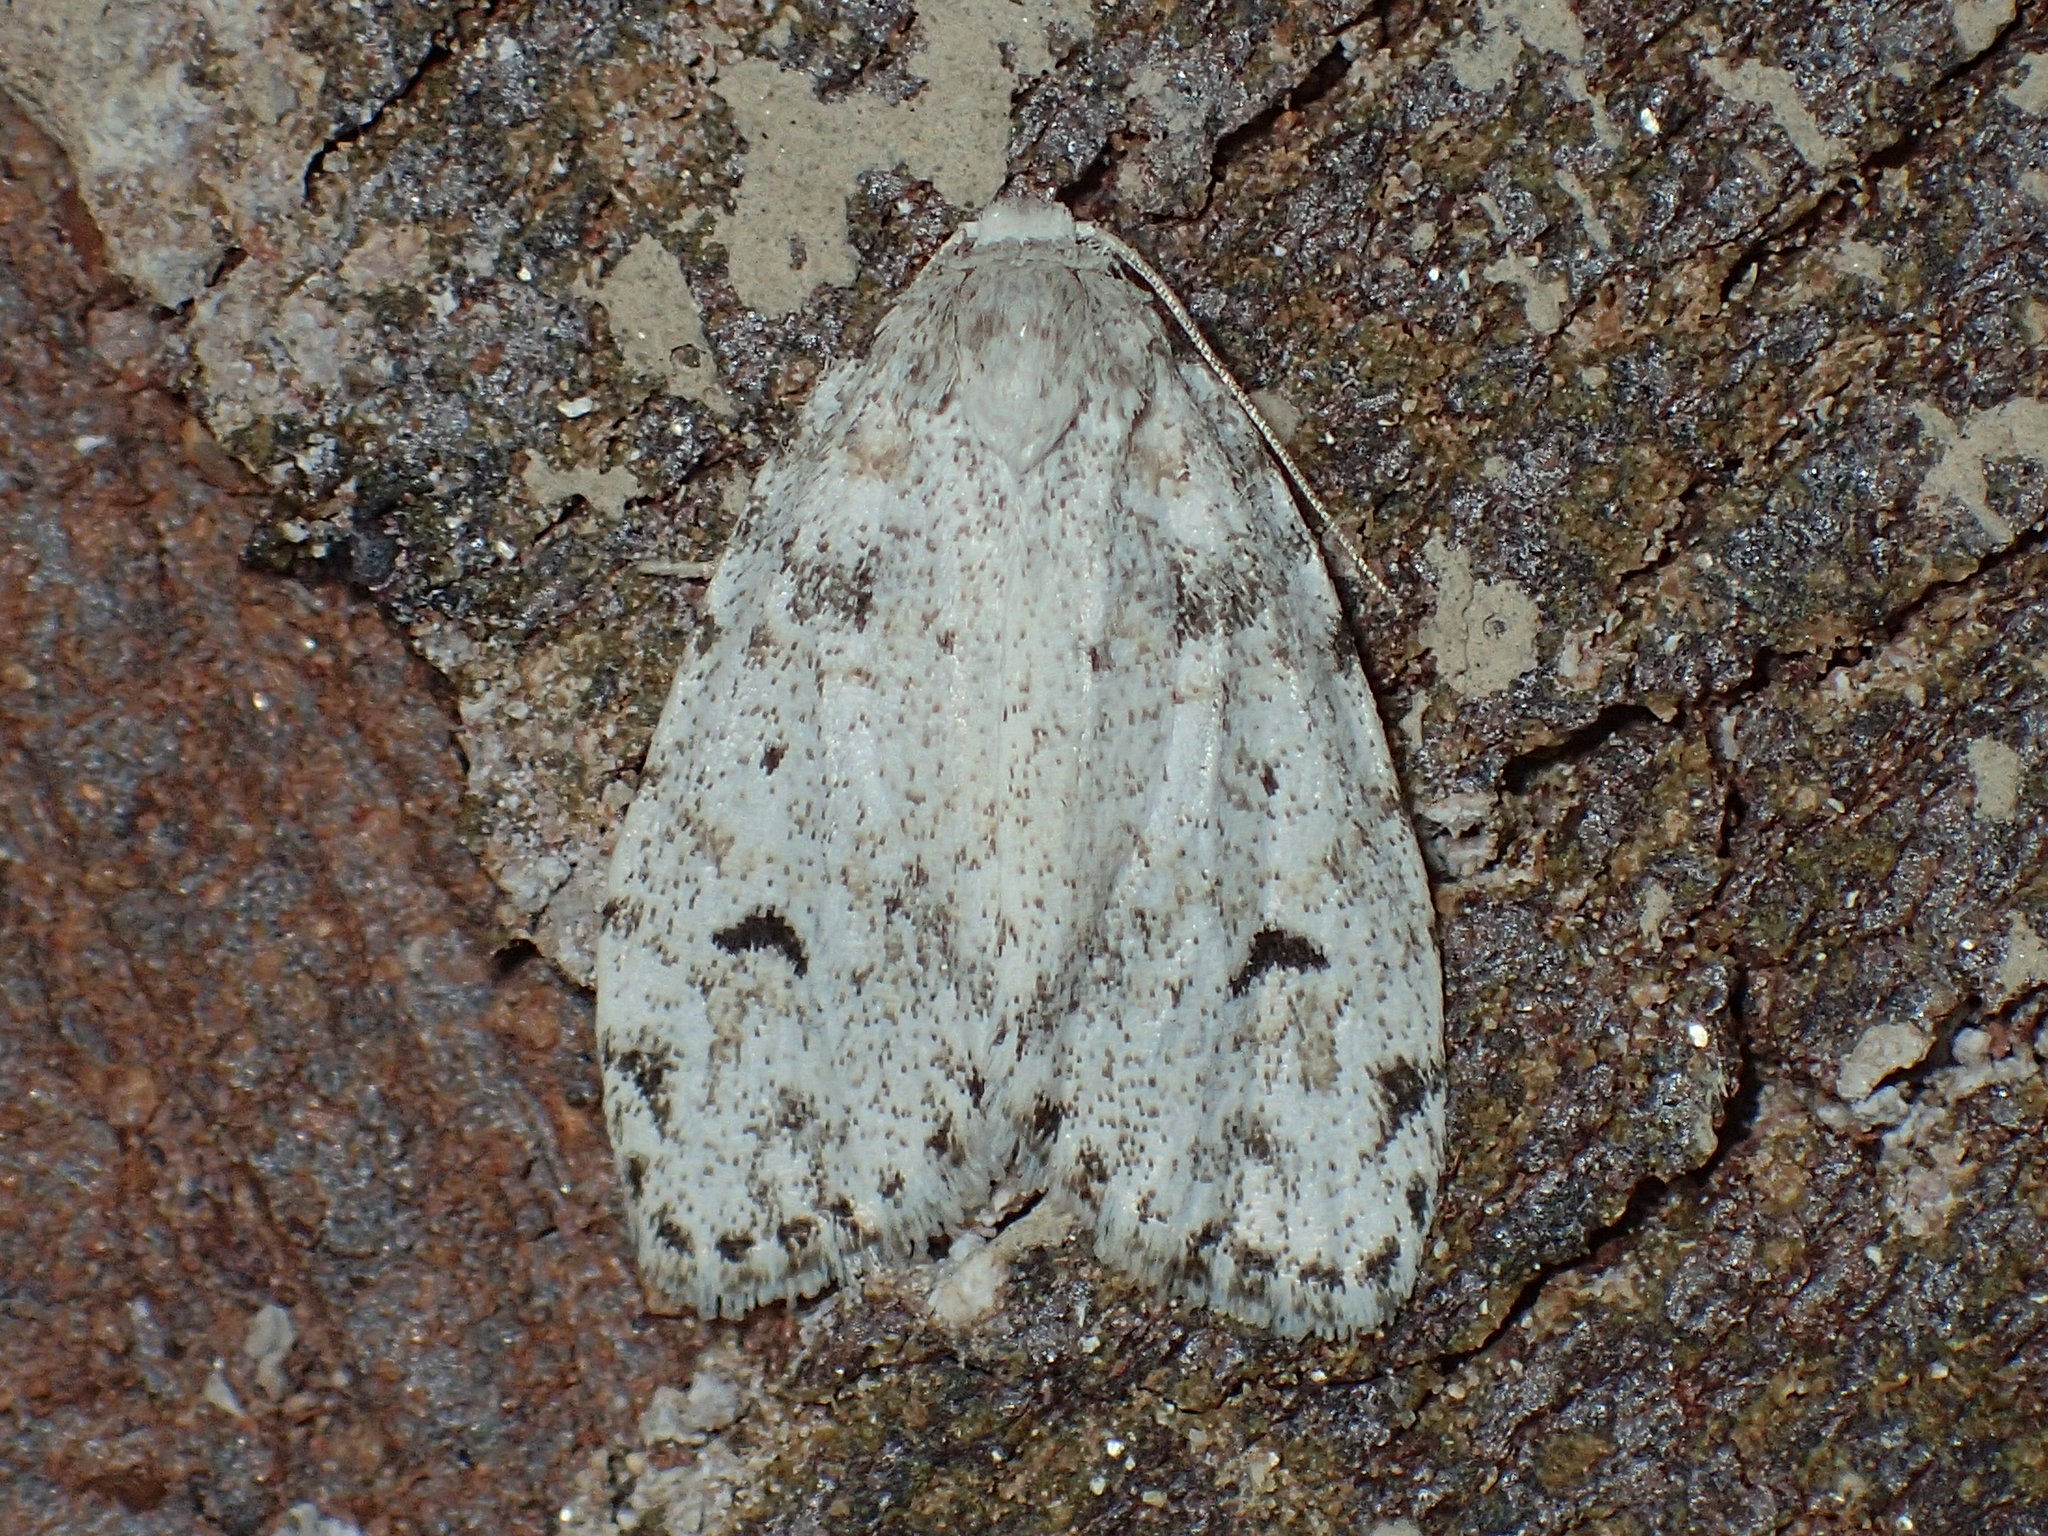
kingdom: Animalia
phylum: Arthropoda
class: Insecta
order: Lepidoptera
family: Erebidae
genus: Clemensia
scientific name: Clemensia albata
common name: Little white lichen moth
